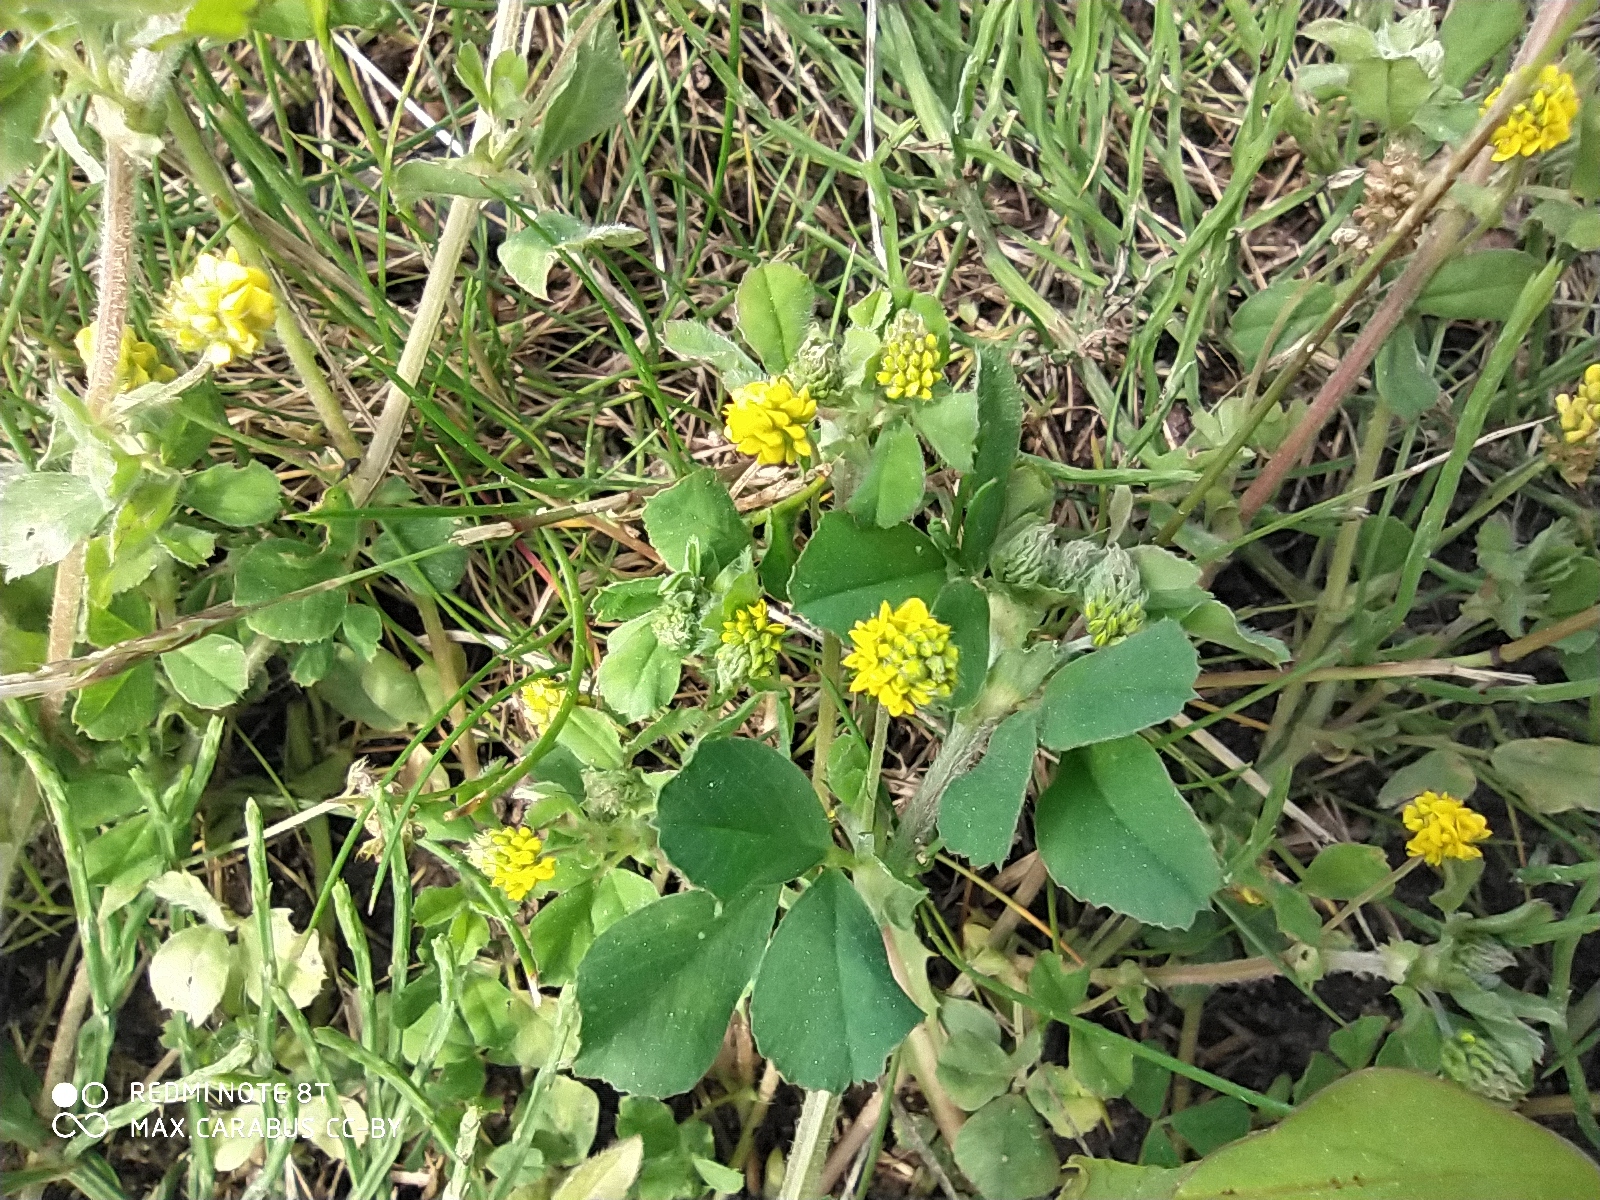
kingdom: Plantae
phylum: Tracheophyta
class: Magnoliopsida
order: Fabales
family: Fabaceae
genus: Medicago
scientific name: Medicago lupulina
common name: Black medick
